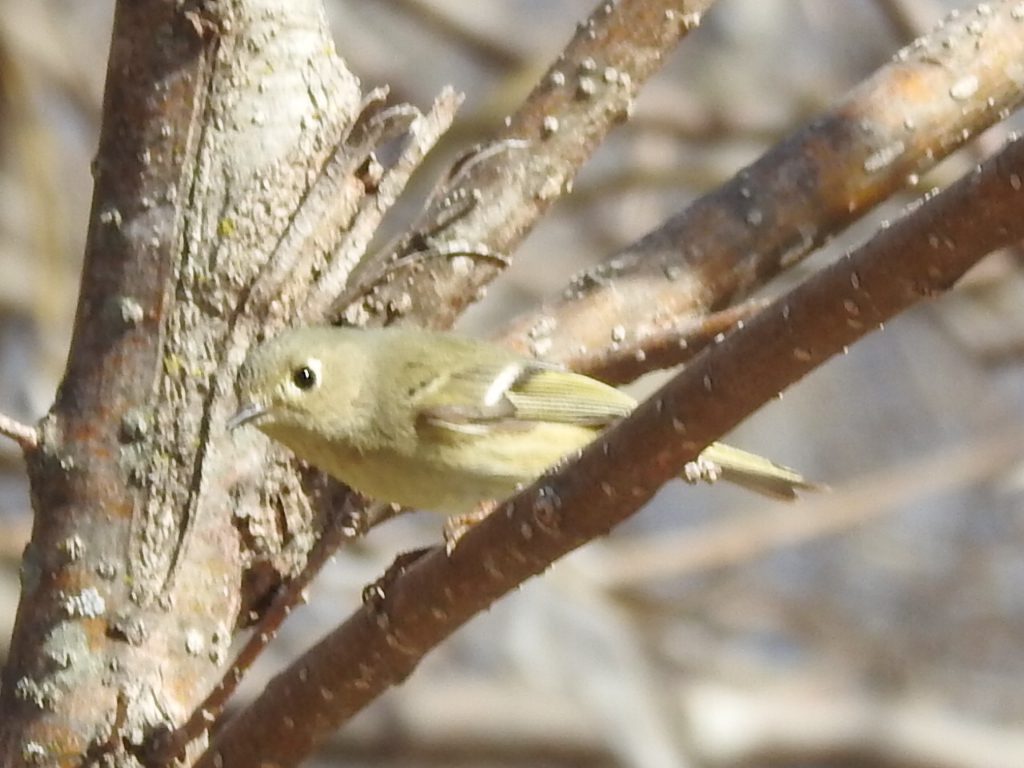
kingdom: Animalia
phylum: Chordata
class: Aves
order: Passeriformes
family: Regulidae
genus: Regulus
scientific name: Regulus calendula
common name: Ruby-crowned kinglet
